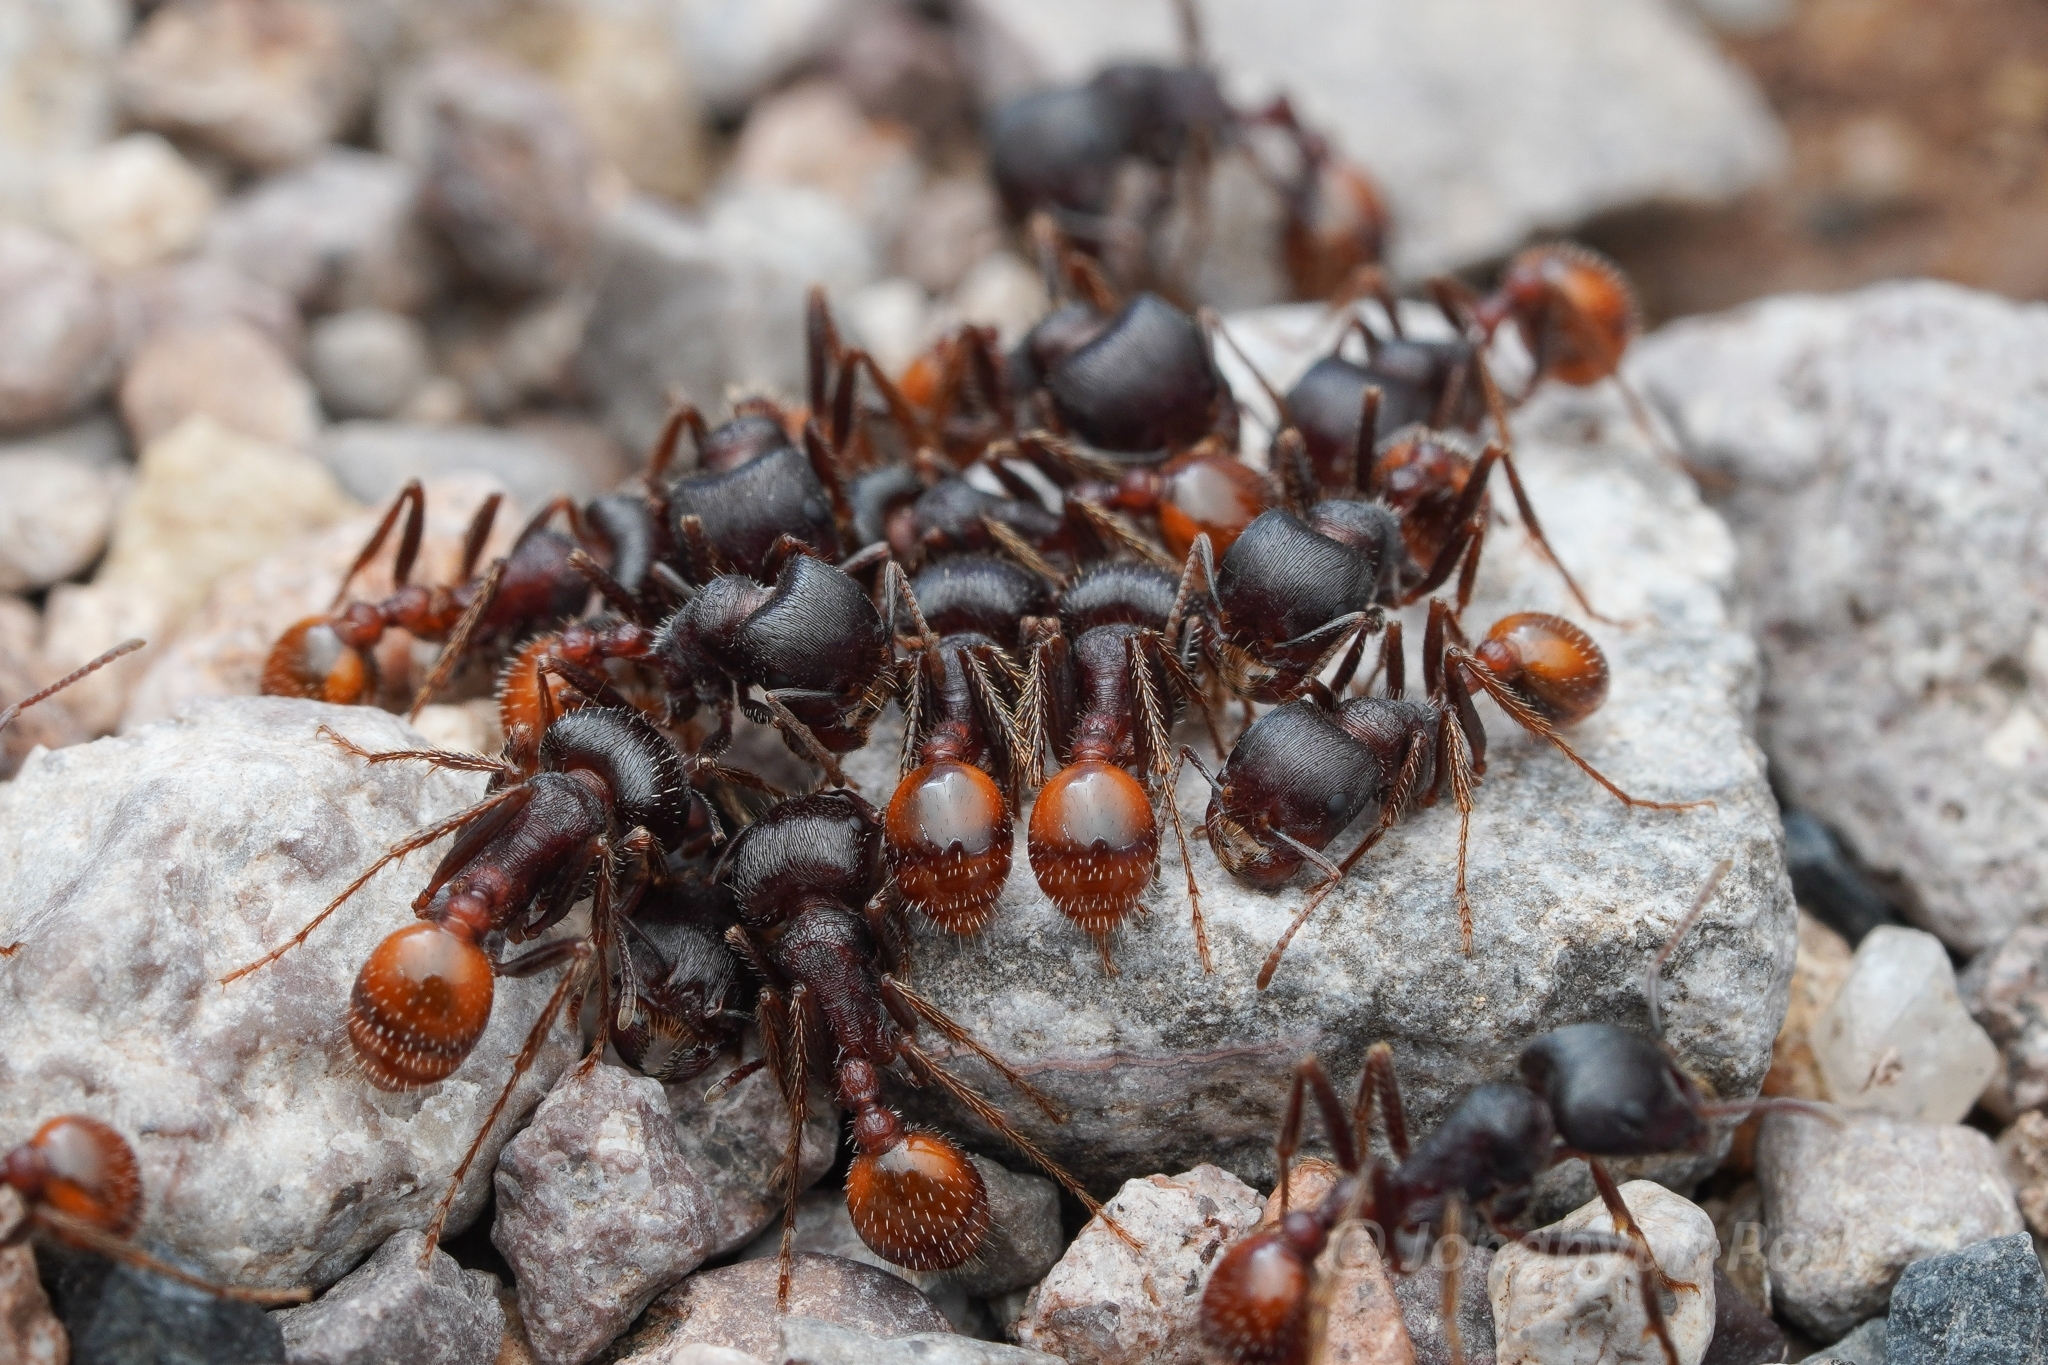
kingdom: Animalia
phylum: Arthropoda
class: Insecta
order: Hymenoptera
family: Formicidae
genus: Pogonomyrmex
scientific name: Pogonomyrmex rugosus
